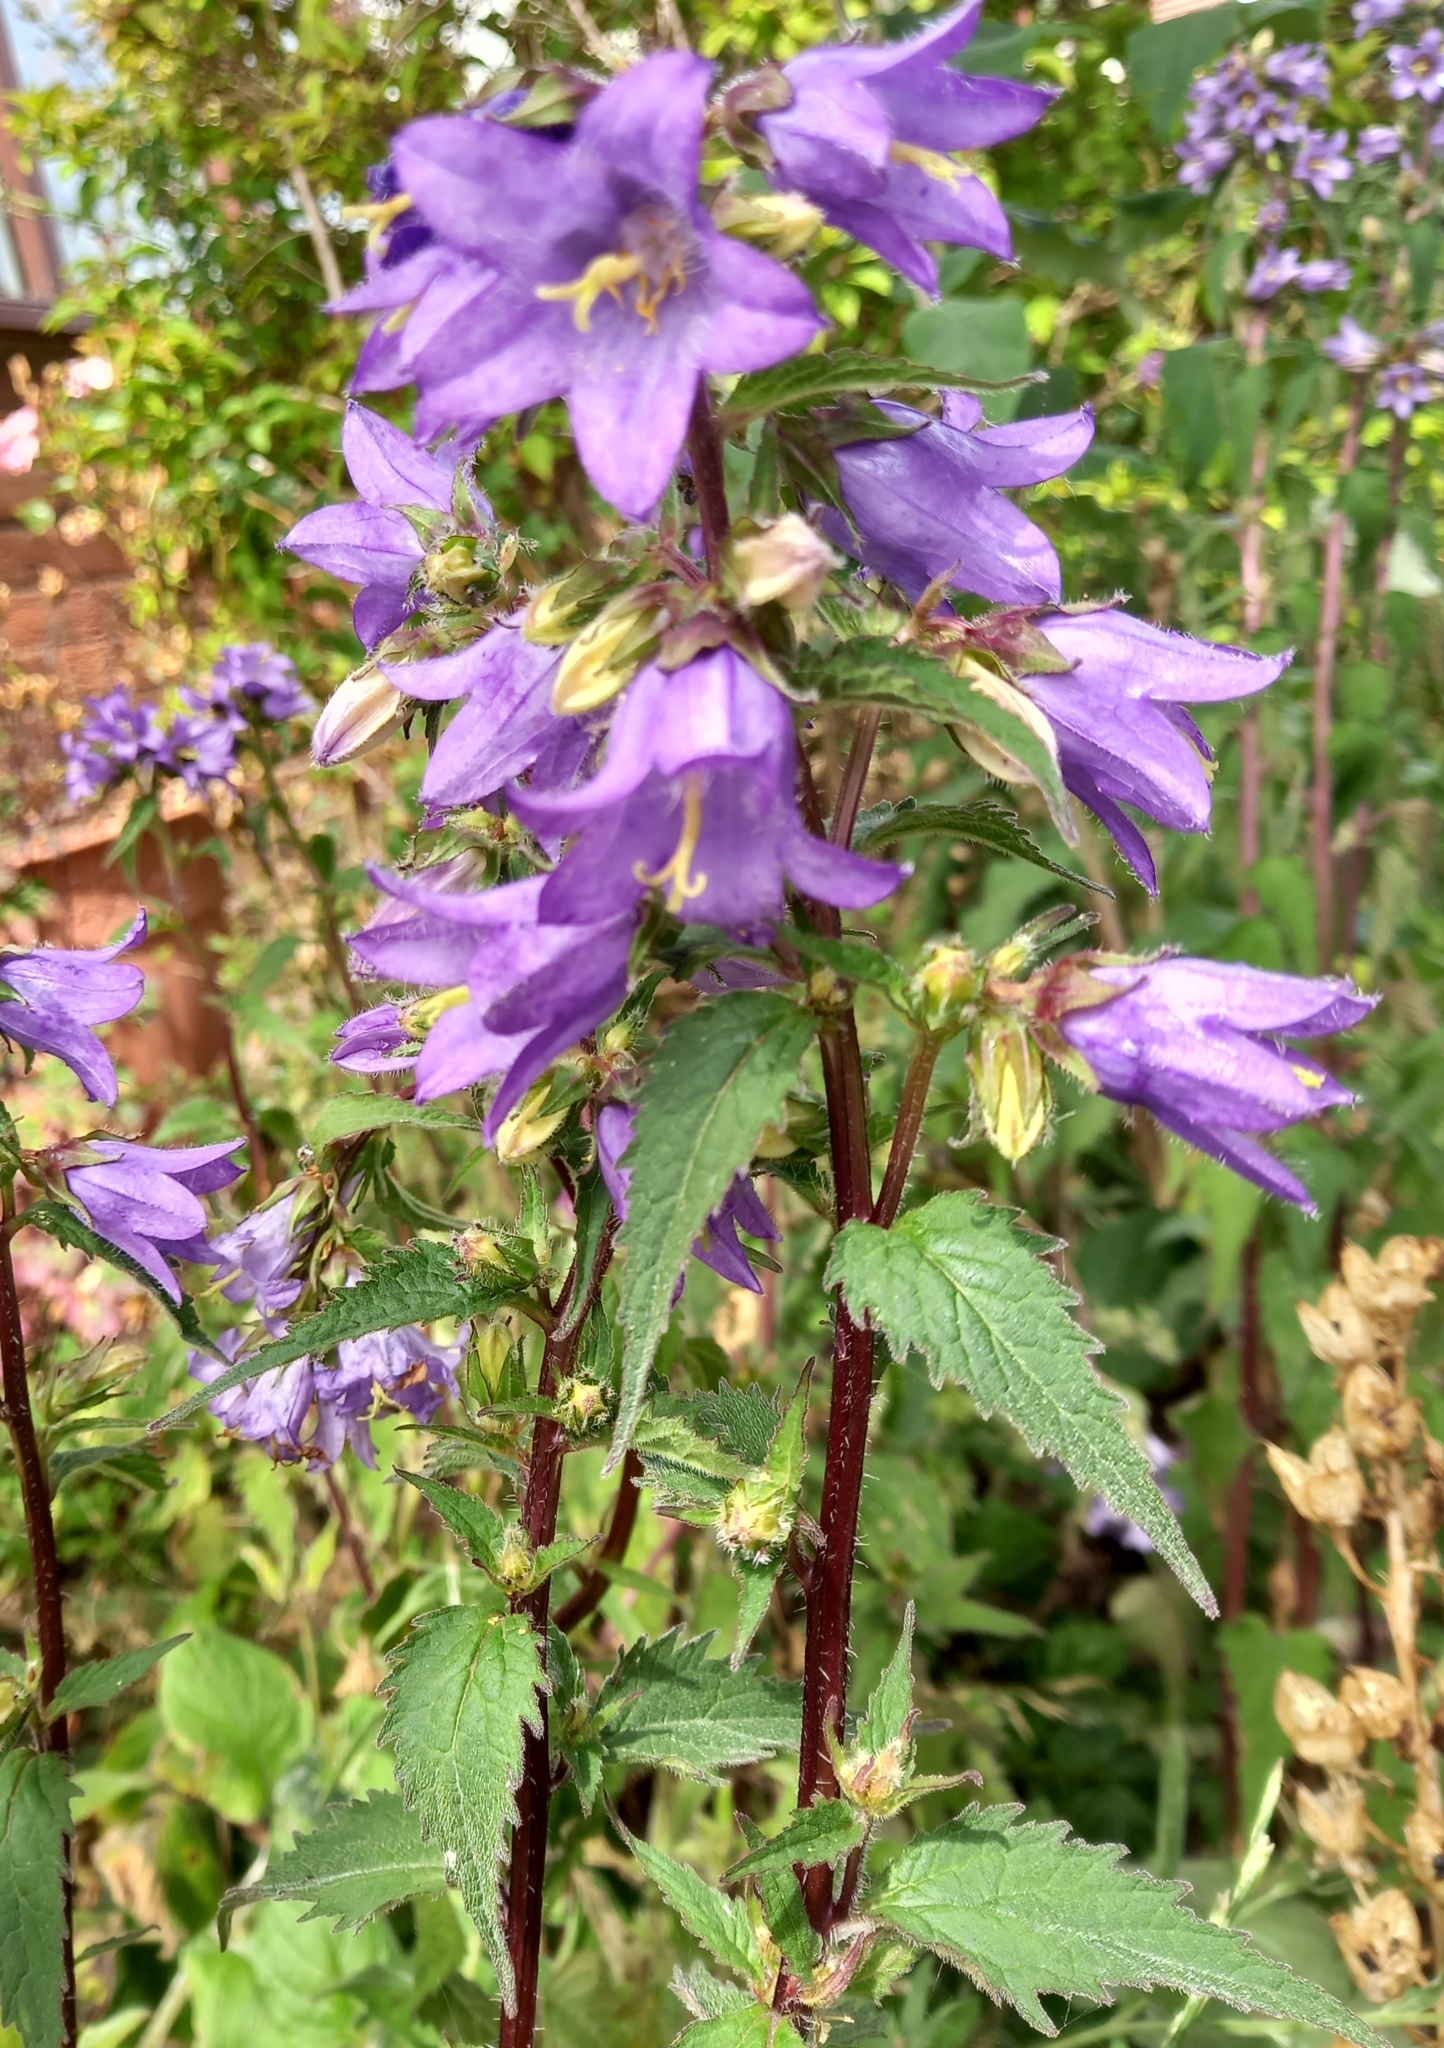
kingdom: Plantae
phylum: Tracheophyta
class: Magnoliopsida
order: Asterales
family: Campanulaceae
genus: Campanula
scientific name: Campanula trachelium
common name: Nettle-leaved bellflower
